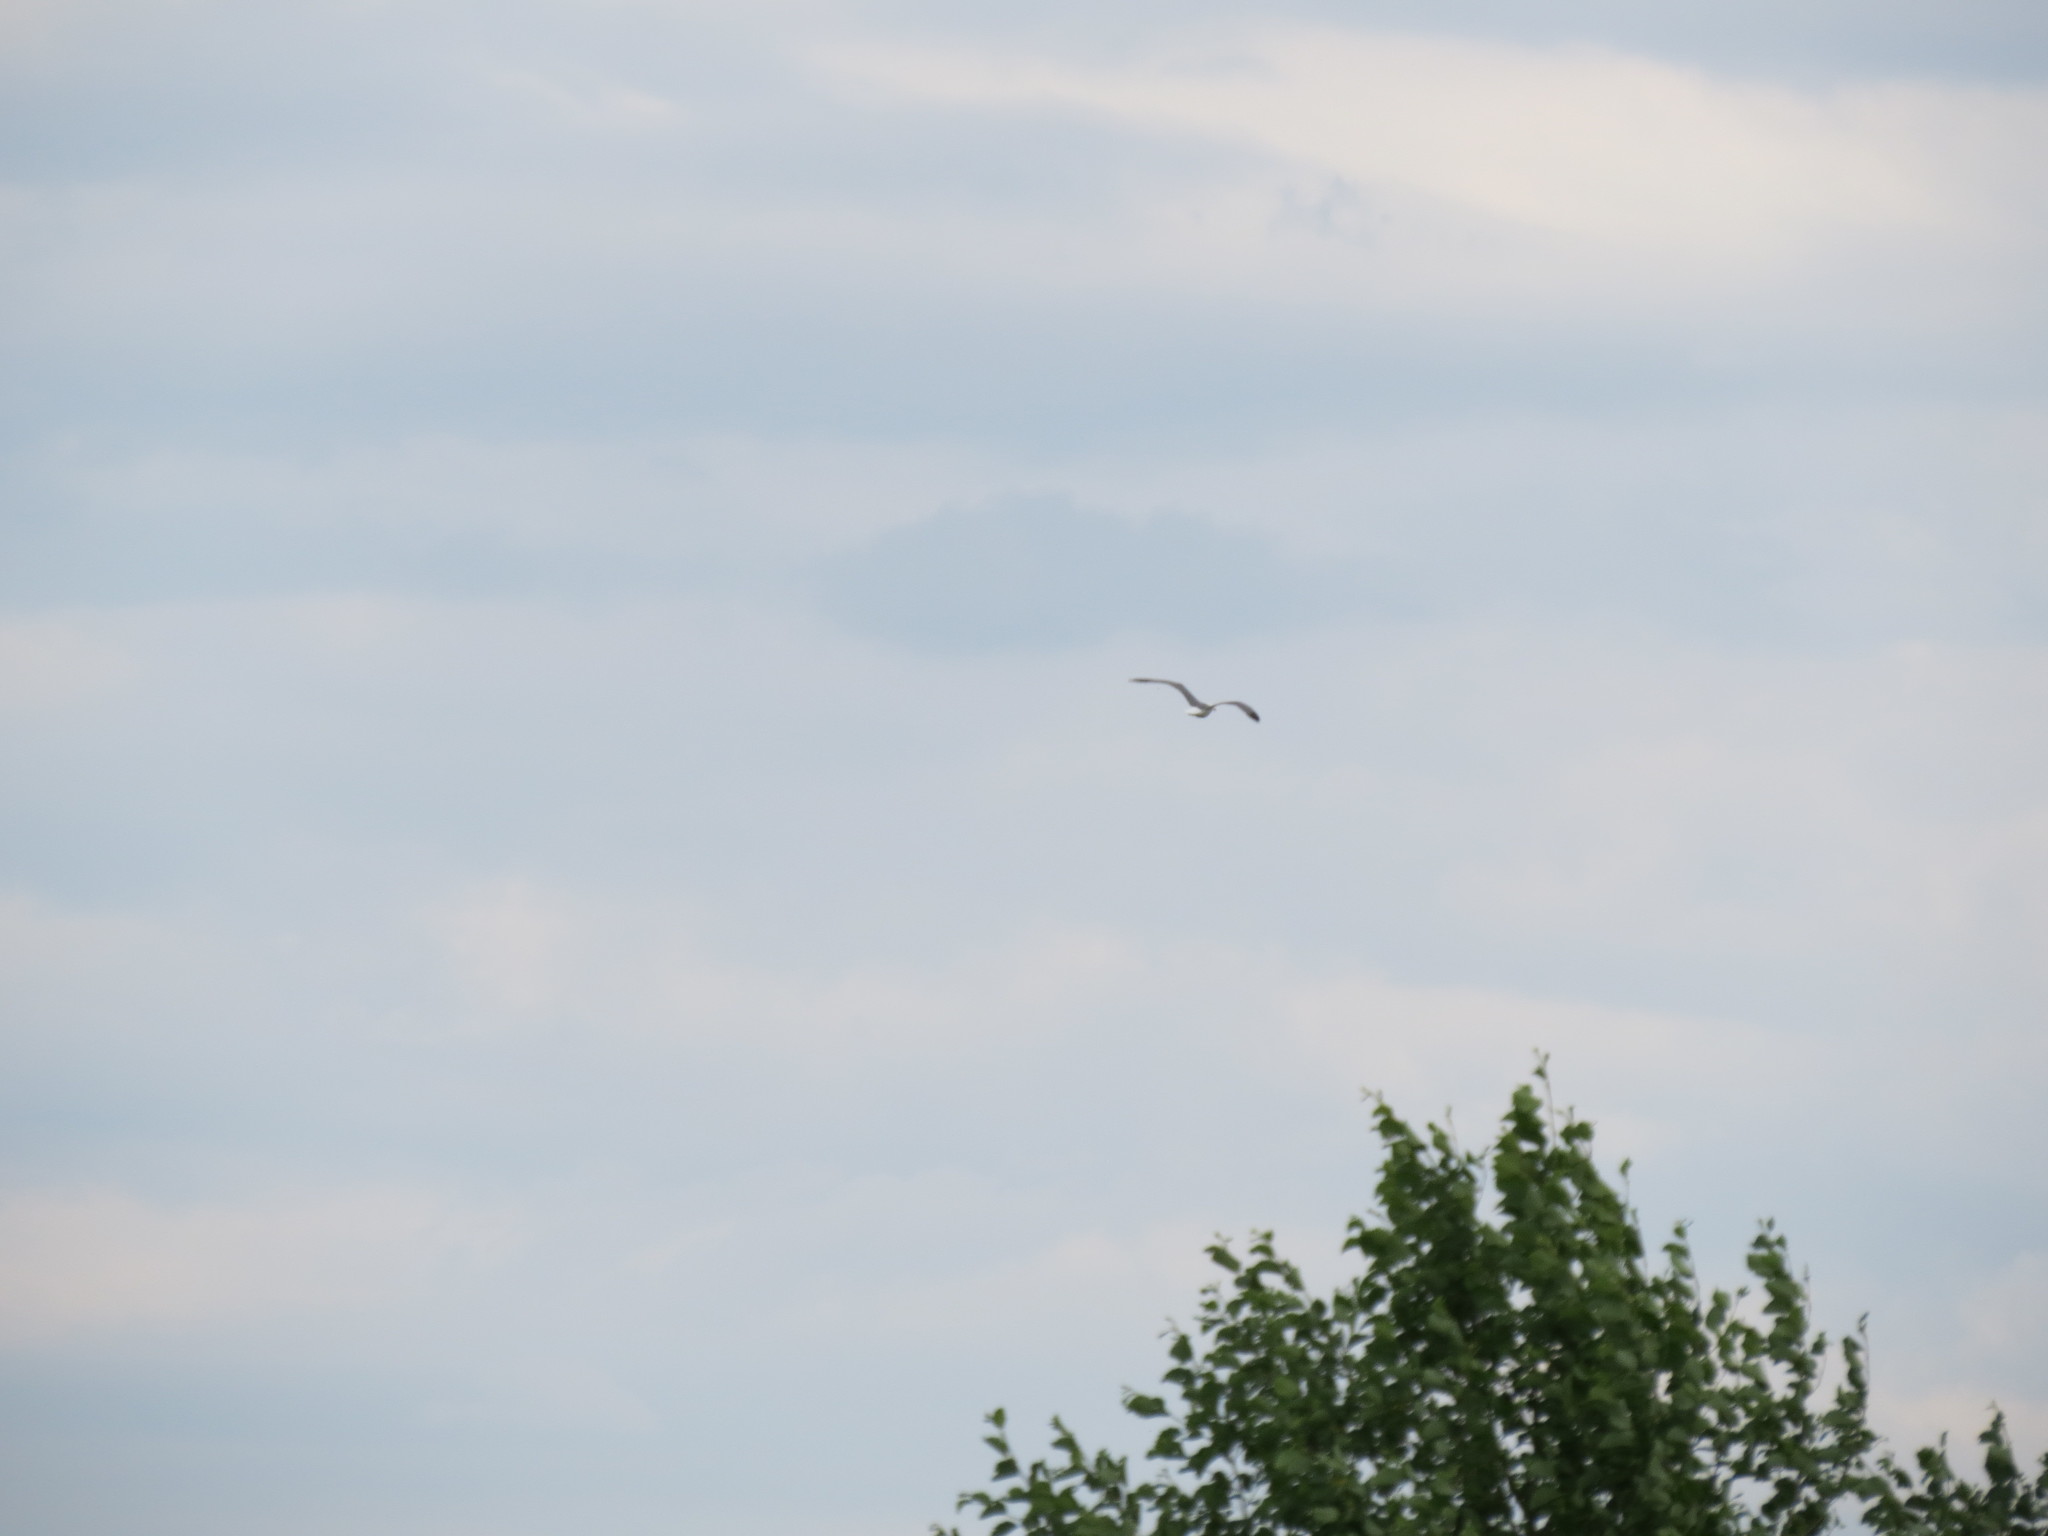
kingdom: Animalia
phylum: Chordata
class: Aves
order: Charadriiformes
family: Laridae
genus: Larus
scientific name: Larus fuscus
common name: Lesser black-backed gull
